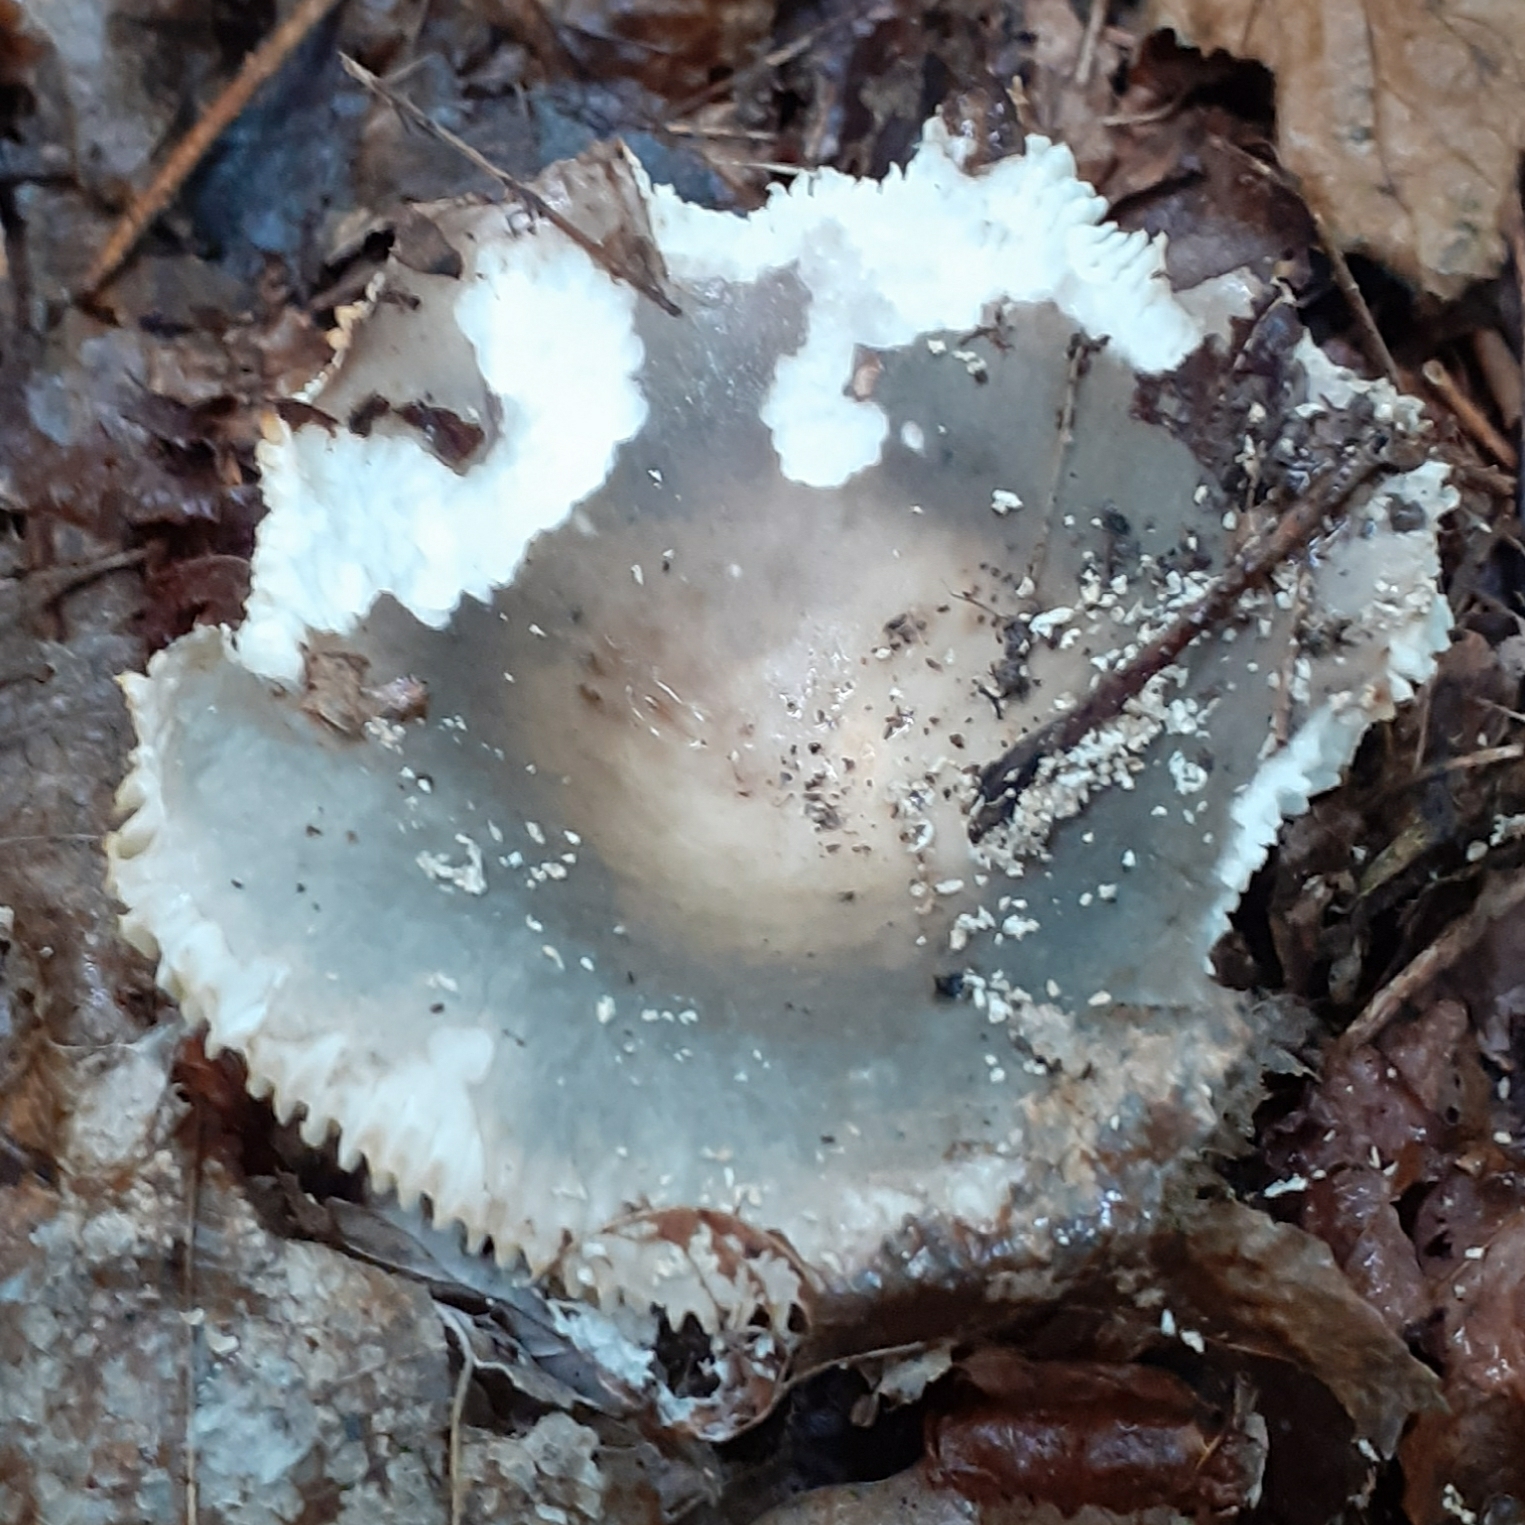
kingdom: Fungi
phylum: Basidiomycota
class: Agaricomycetes
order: Russulales
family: Russulaceae
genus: Russula
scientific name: Russula cyanoxantha
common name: Charcoal burner
